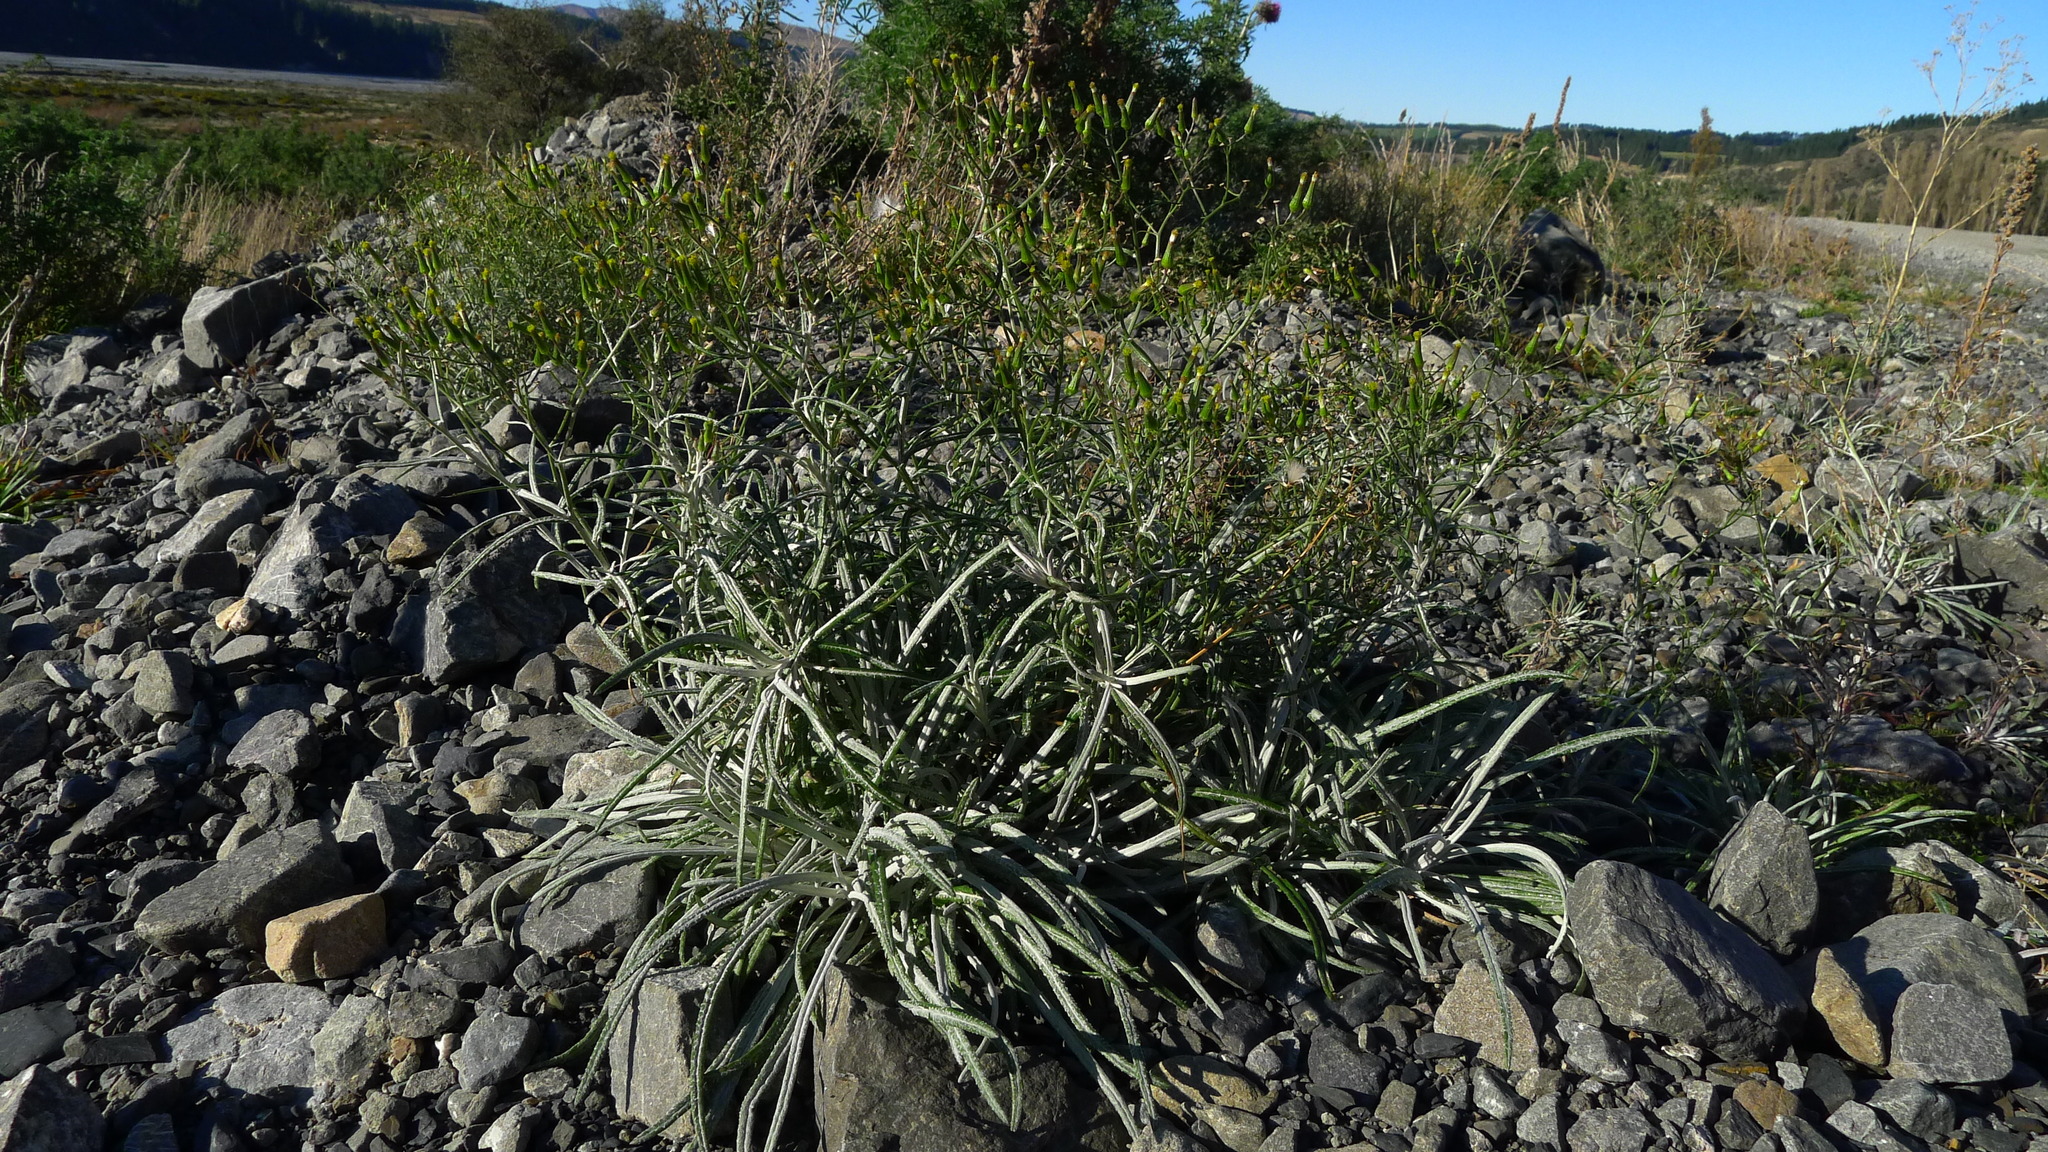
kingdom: Plantae
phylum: Tracheophyta
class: Magnoliopsida
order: Asterales
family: Asteraceae
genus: Senecio
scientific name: Senecio quadridentatus
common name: Cotton fireweed
